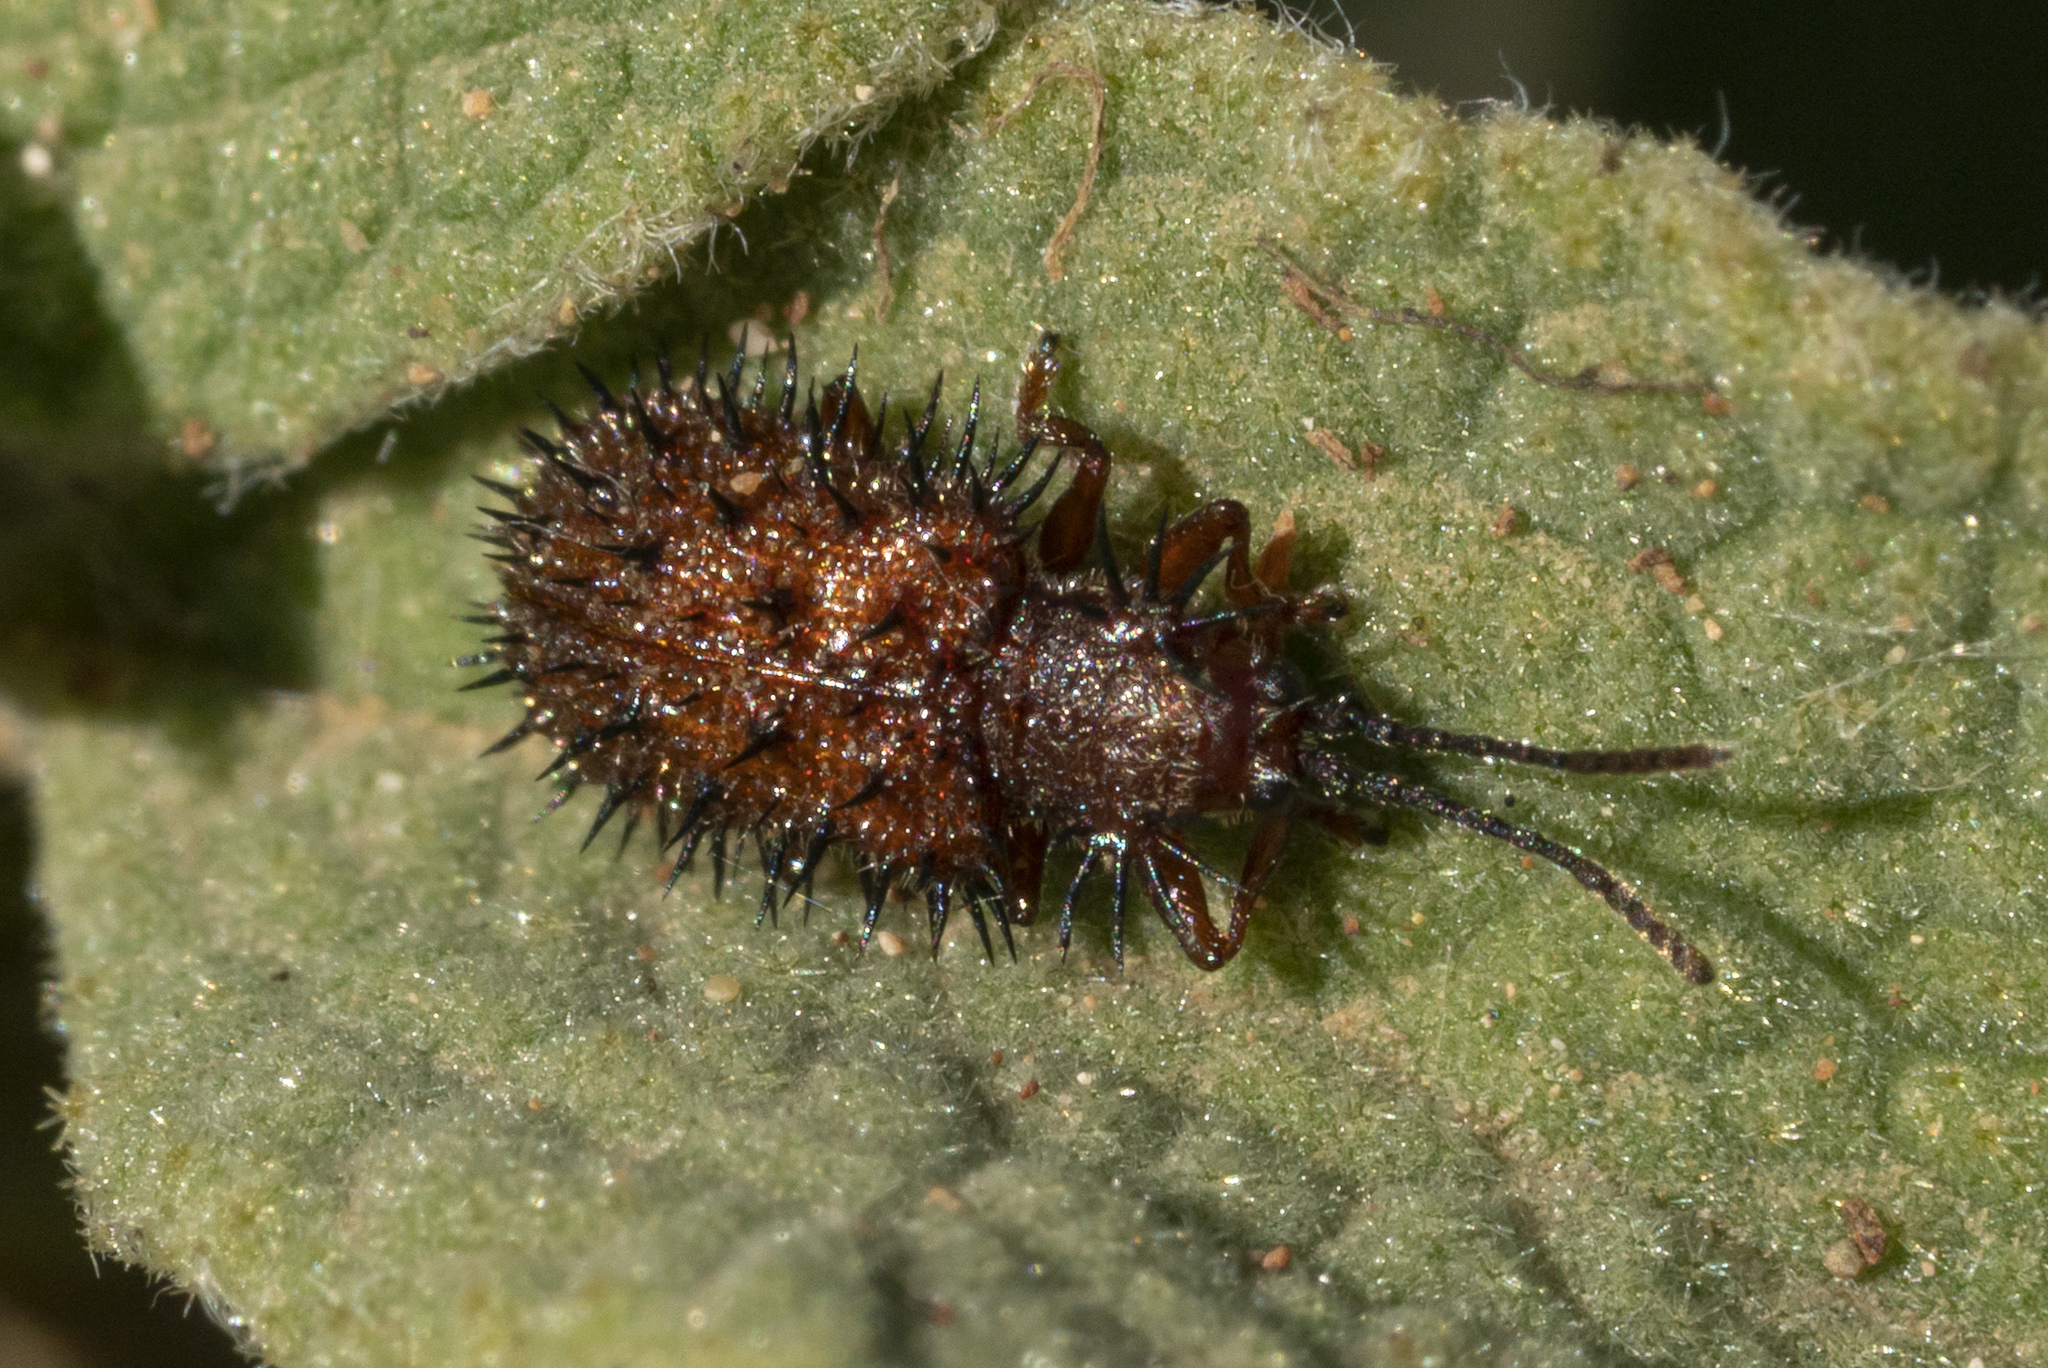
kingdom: Animalia
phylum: Arthropoda
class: Insecta
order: Coleoptera
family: Chrysomelidae
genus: Dicladispa
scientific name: Dicladispa testacea
